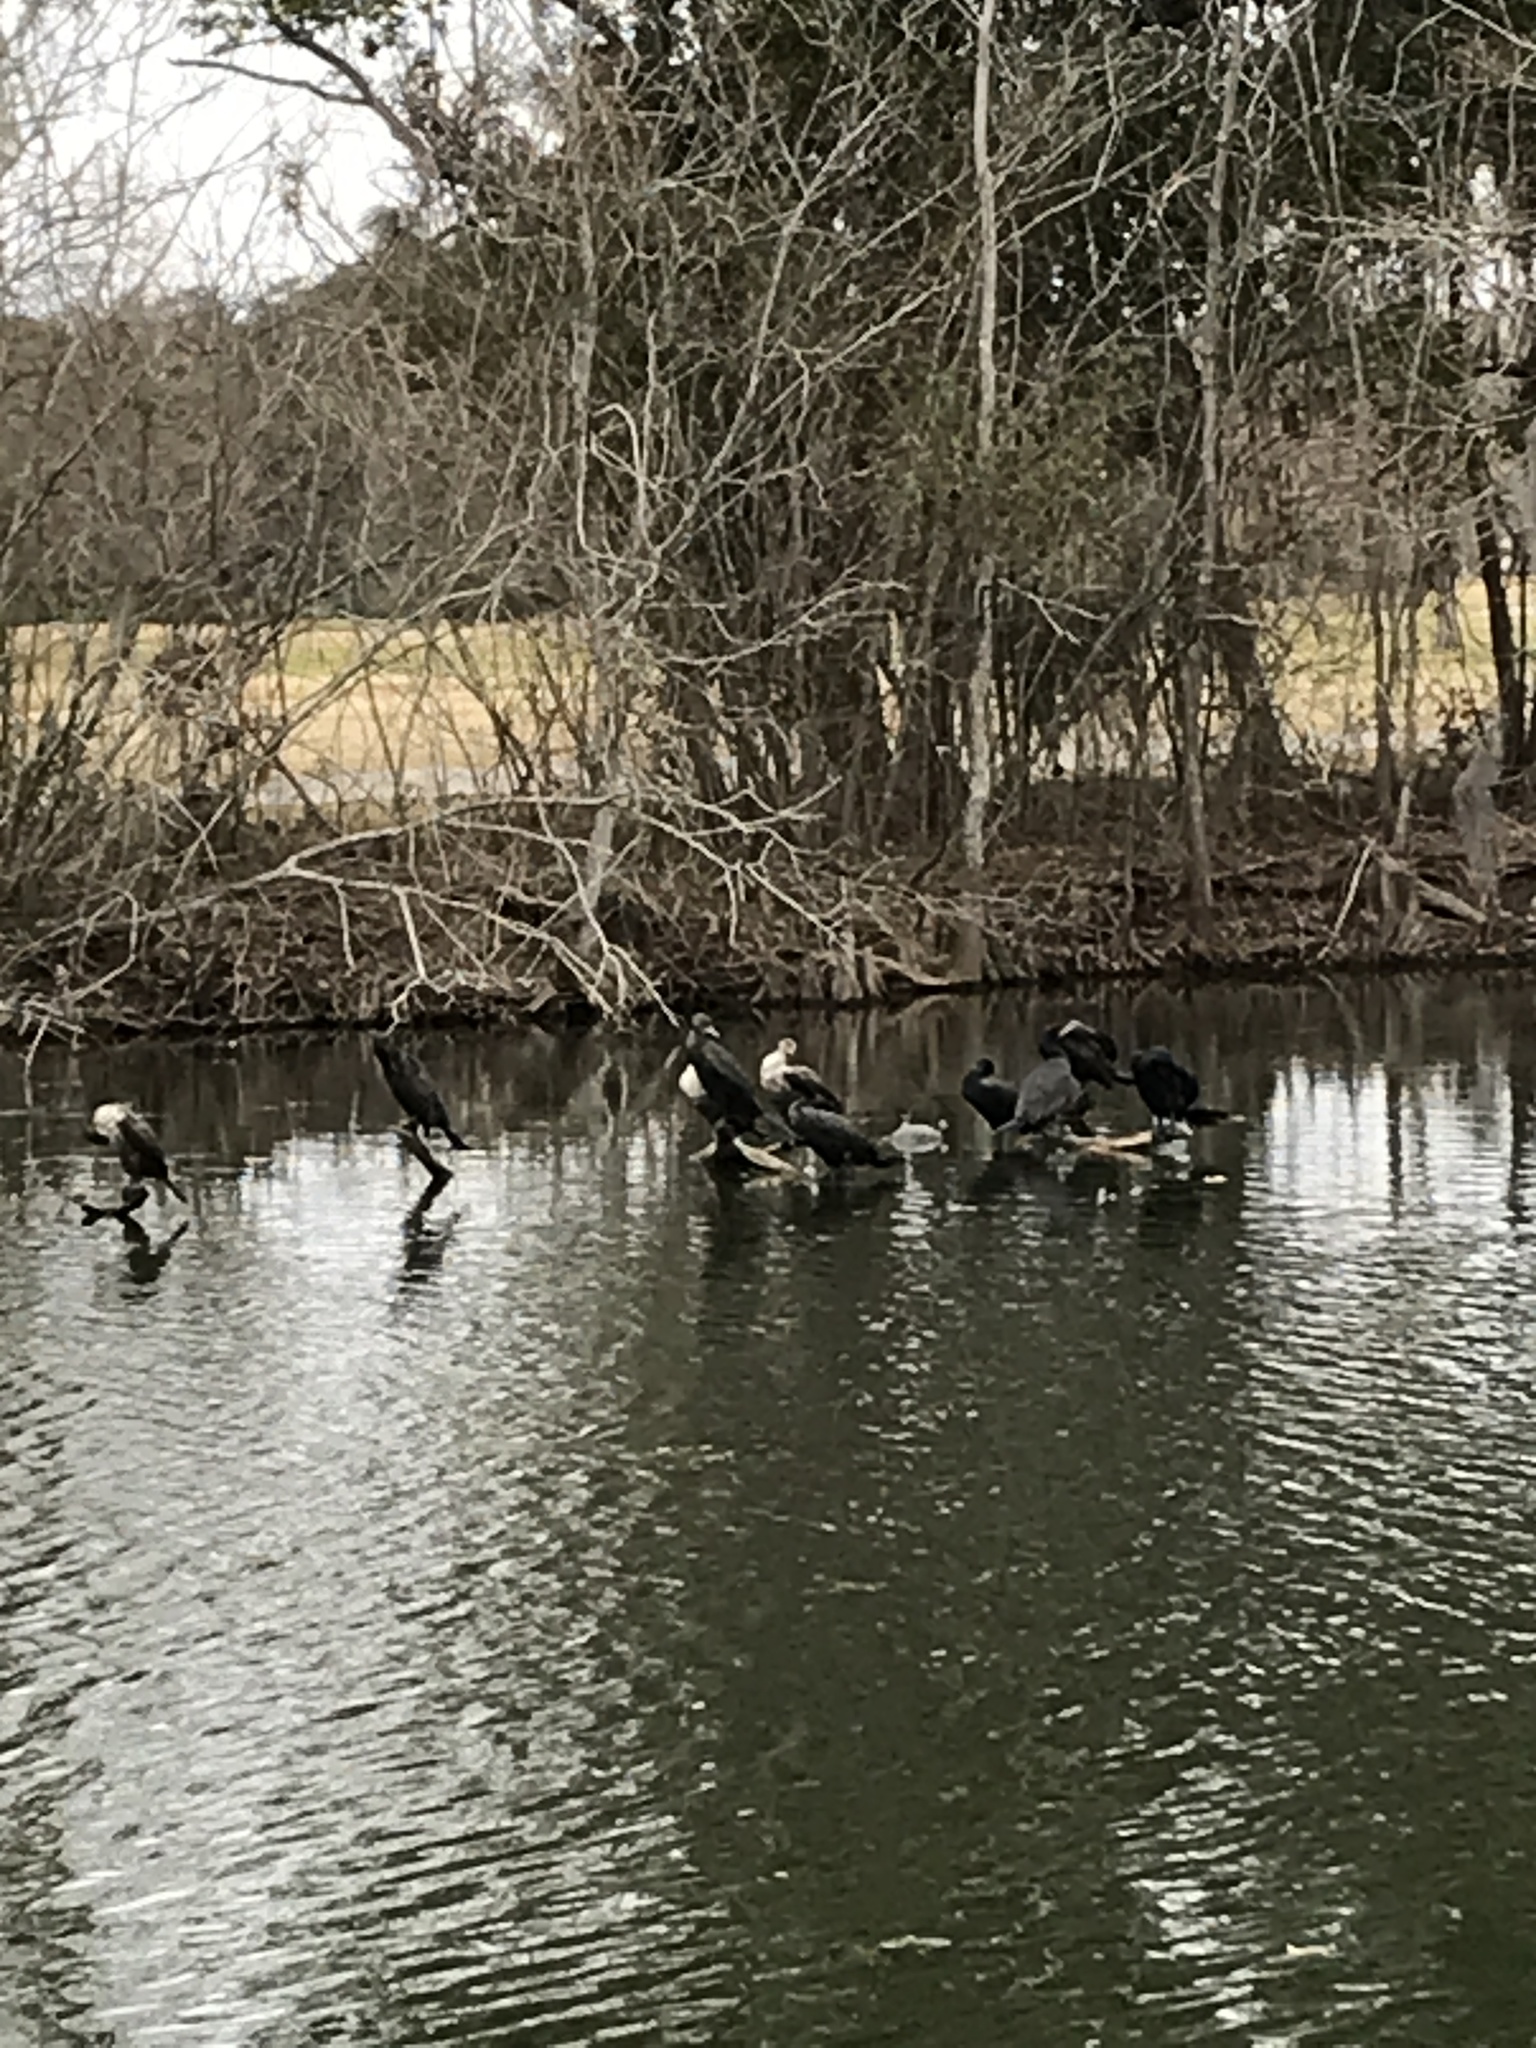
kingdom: Animalia
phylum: Chordata
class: Aves
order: Suliformes
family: Phalacrocoracidae
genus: Phalacrocorax
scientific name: Phalacrocorax auritus
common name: Double-crested cormorant
